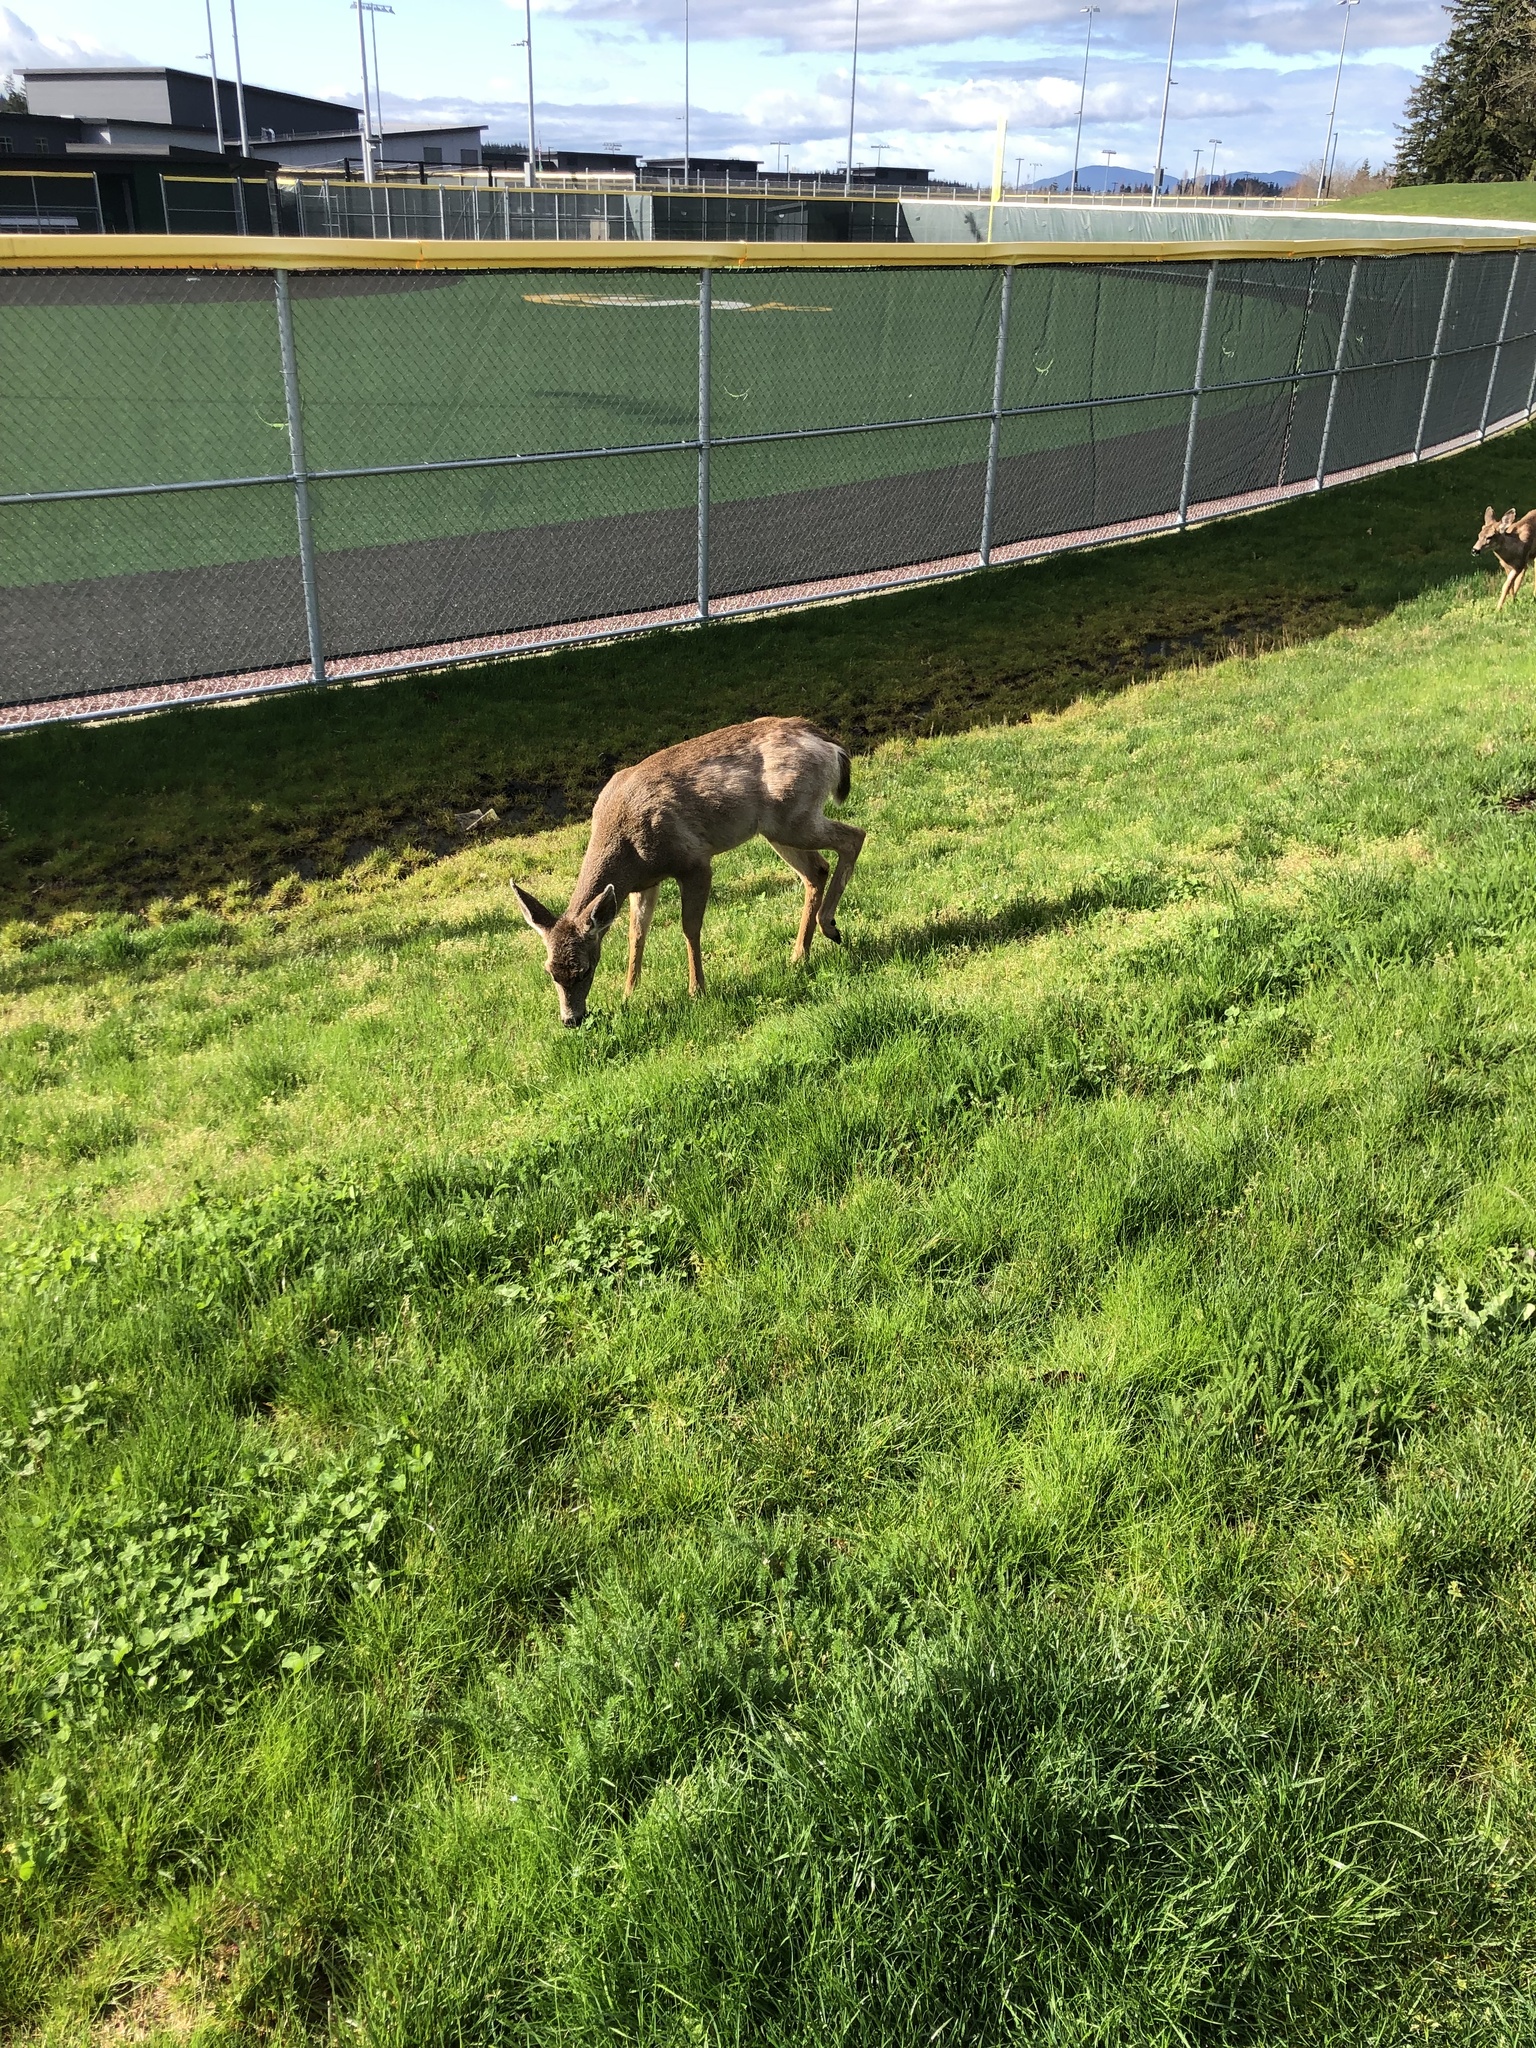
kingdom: Animalia
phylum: Chordata
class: Mammalia
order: Artiodactyla
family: Cervidae
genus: Odocoileus
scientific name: Odocoileus hemionus
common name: Mule deer
